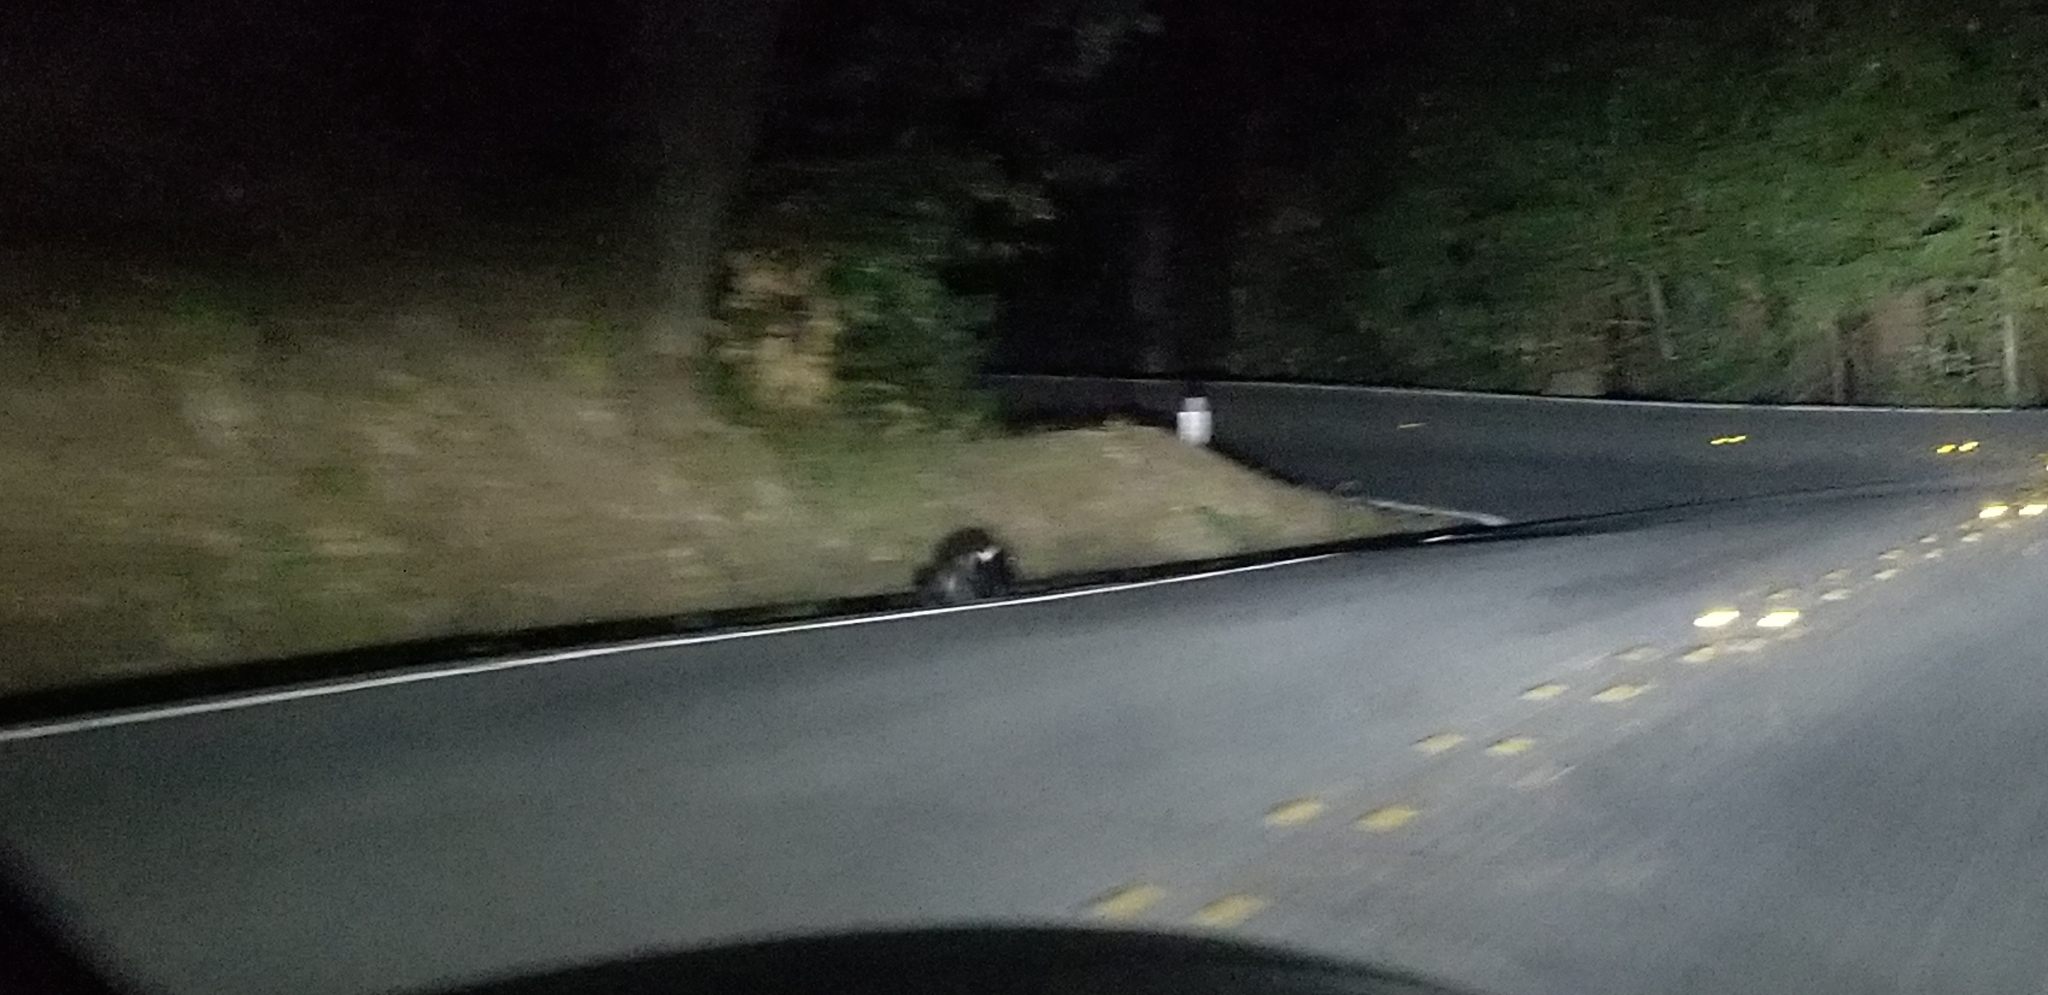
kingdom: Animalia
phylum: Chordata
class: Mammalia
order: Carnivora
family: Mephitidae
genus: Mephitis
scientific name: Mephitis mephitis
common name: Striped skunk
